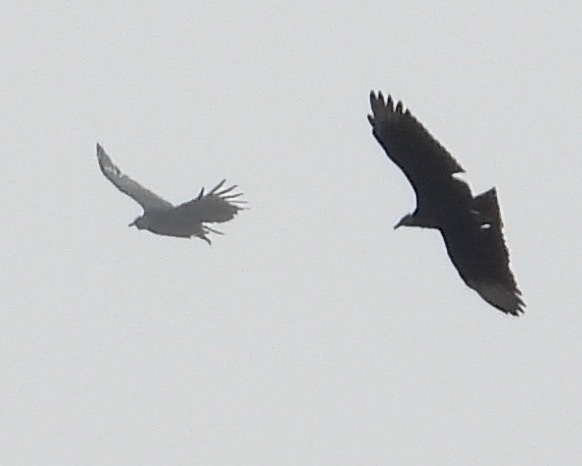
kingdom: Animalia
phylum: Chordata
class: Aves
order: Accipitriformes
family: Cathartidae
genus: Coragyps
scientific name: Coragyps atratus
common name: Black vulture
